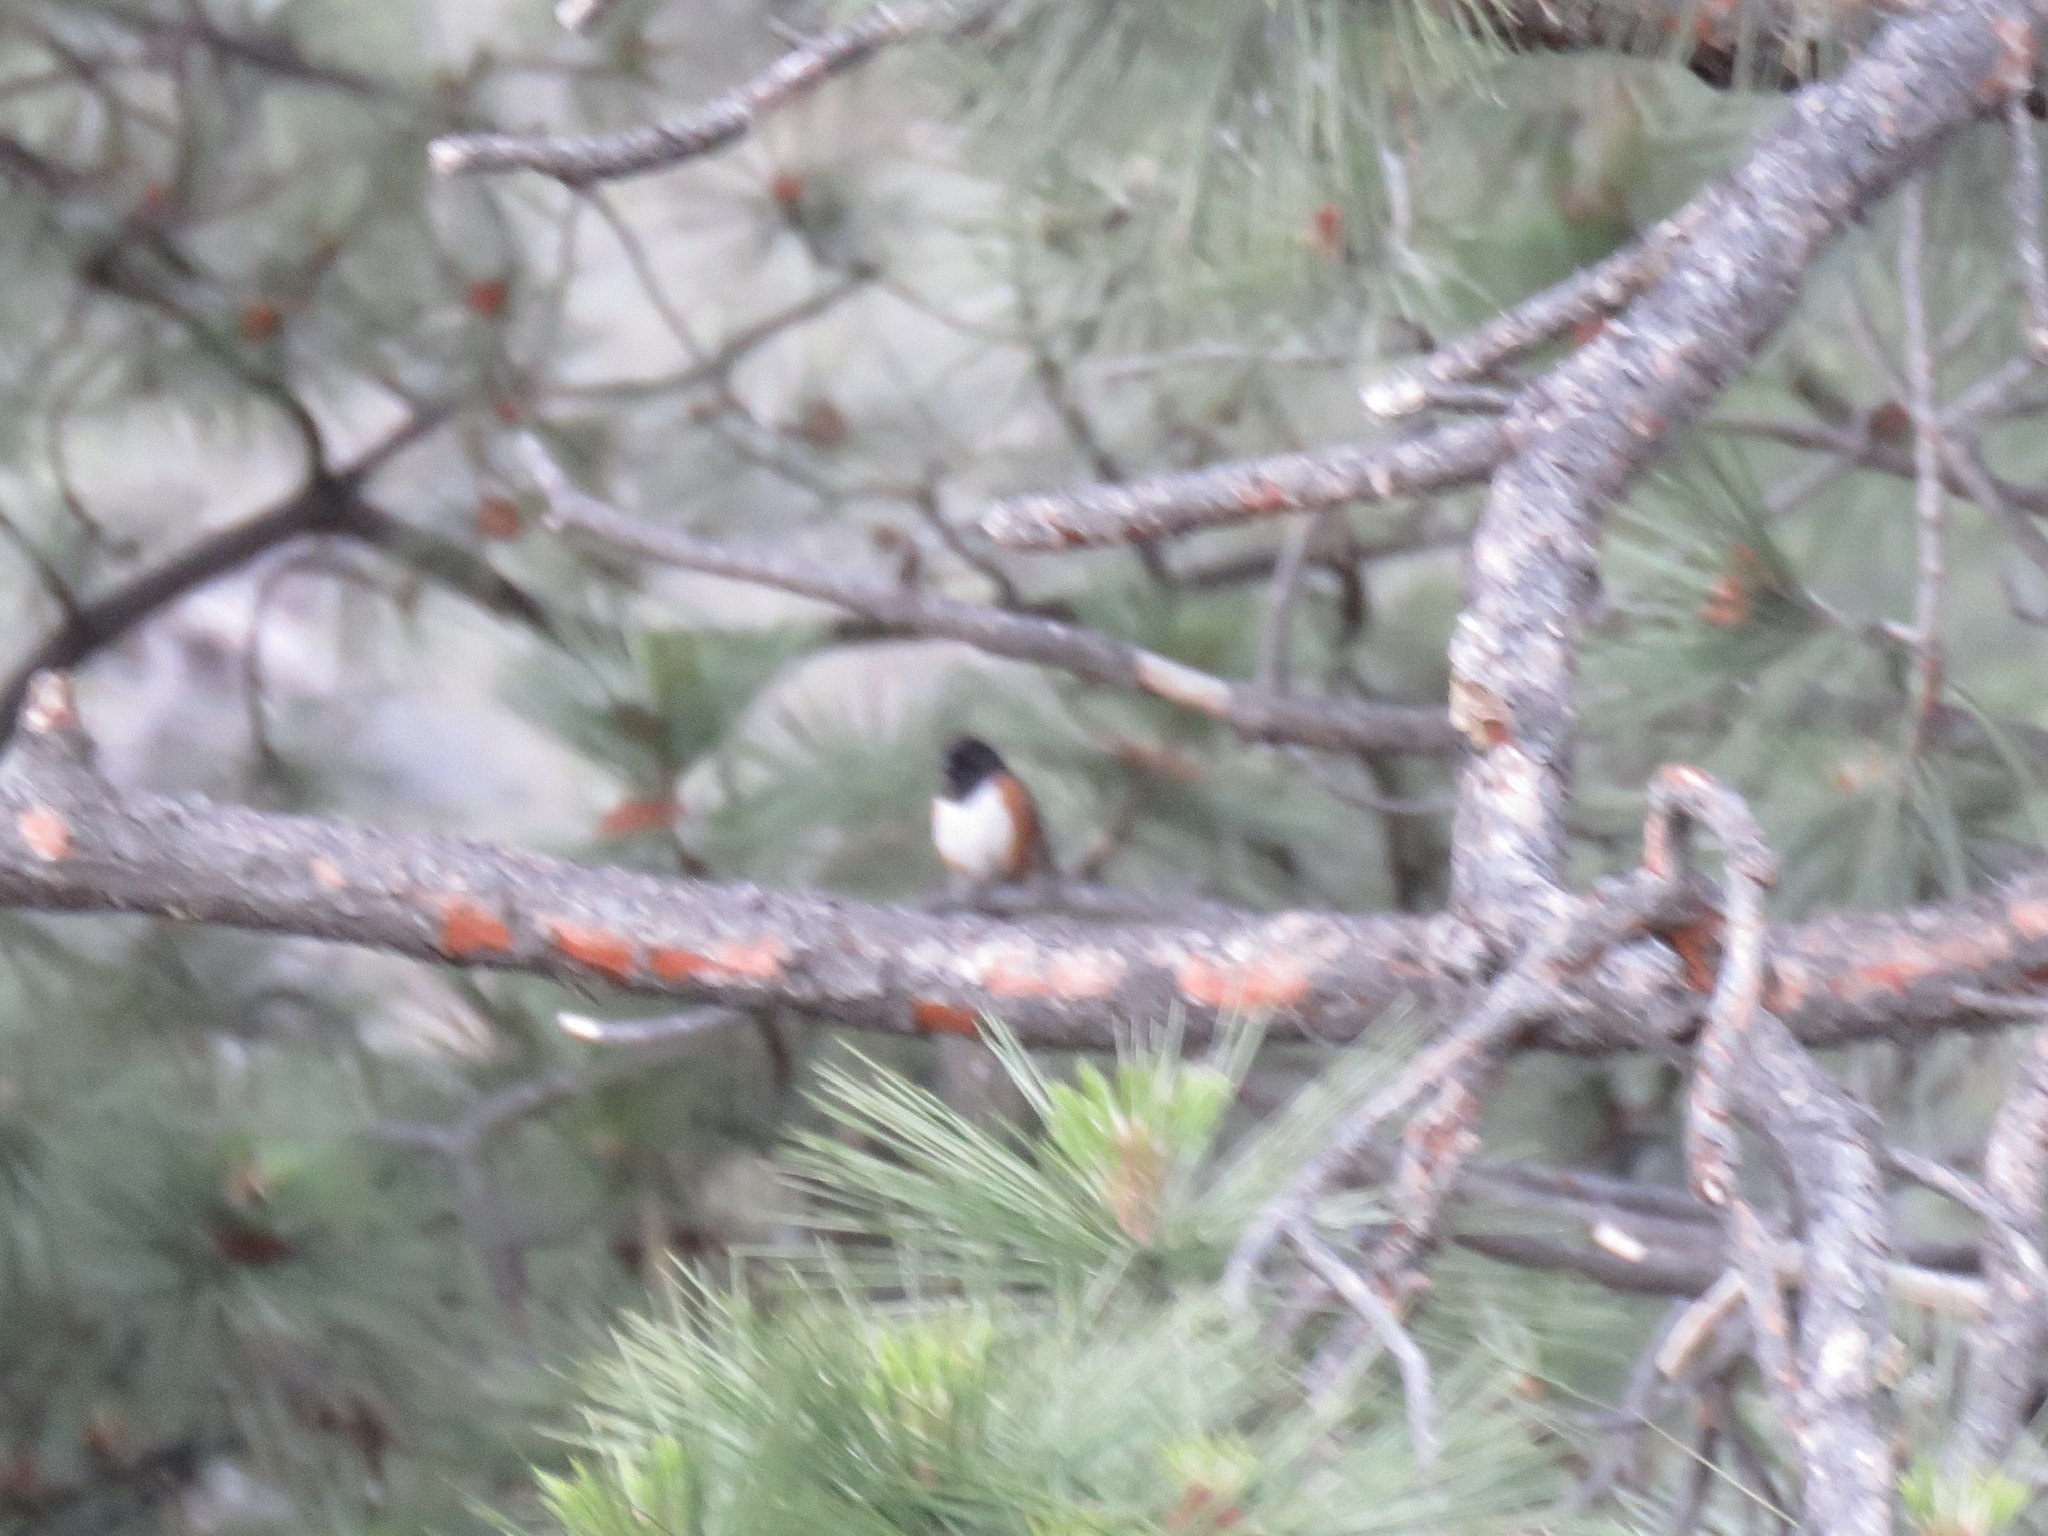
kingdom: Animalia
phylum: Chordata
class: Aves
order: Passeriformes
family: Passerellidae
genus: Pipilo
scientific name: Pipilo maculatus
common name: Spotted towhee
